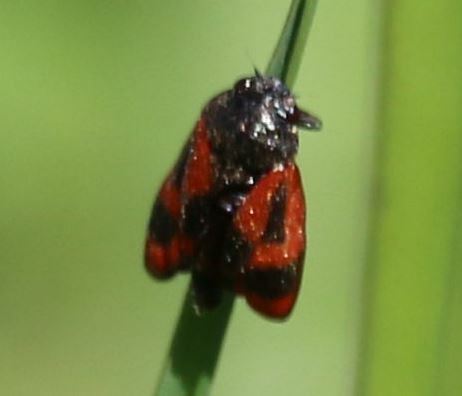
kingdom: Animalia
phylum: Arthropoda
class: Insecta
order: Hemiptera
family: Cercopidae
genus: Haematoloma
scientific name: Haematoloma dorsata
